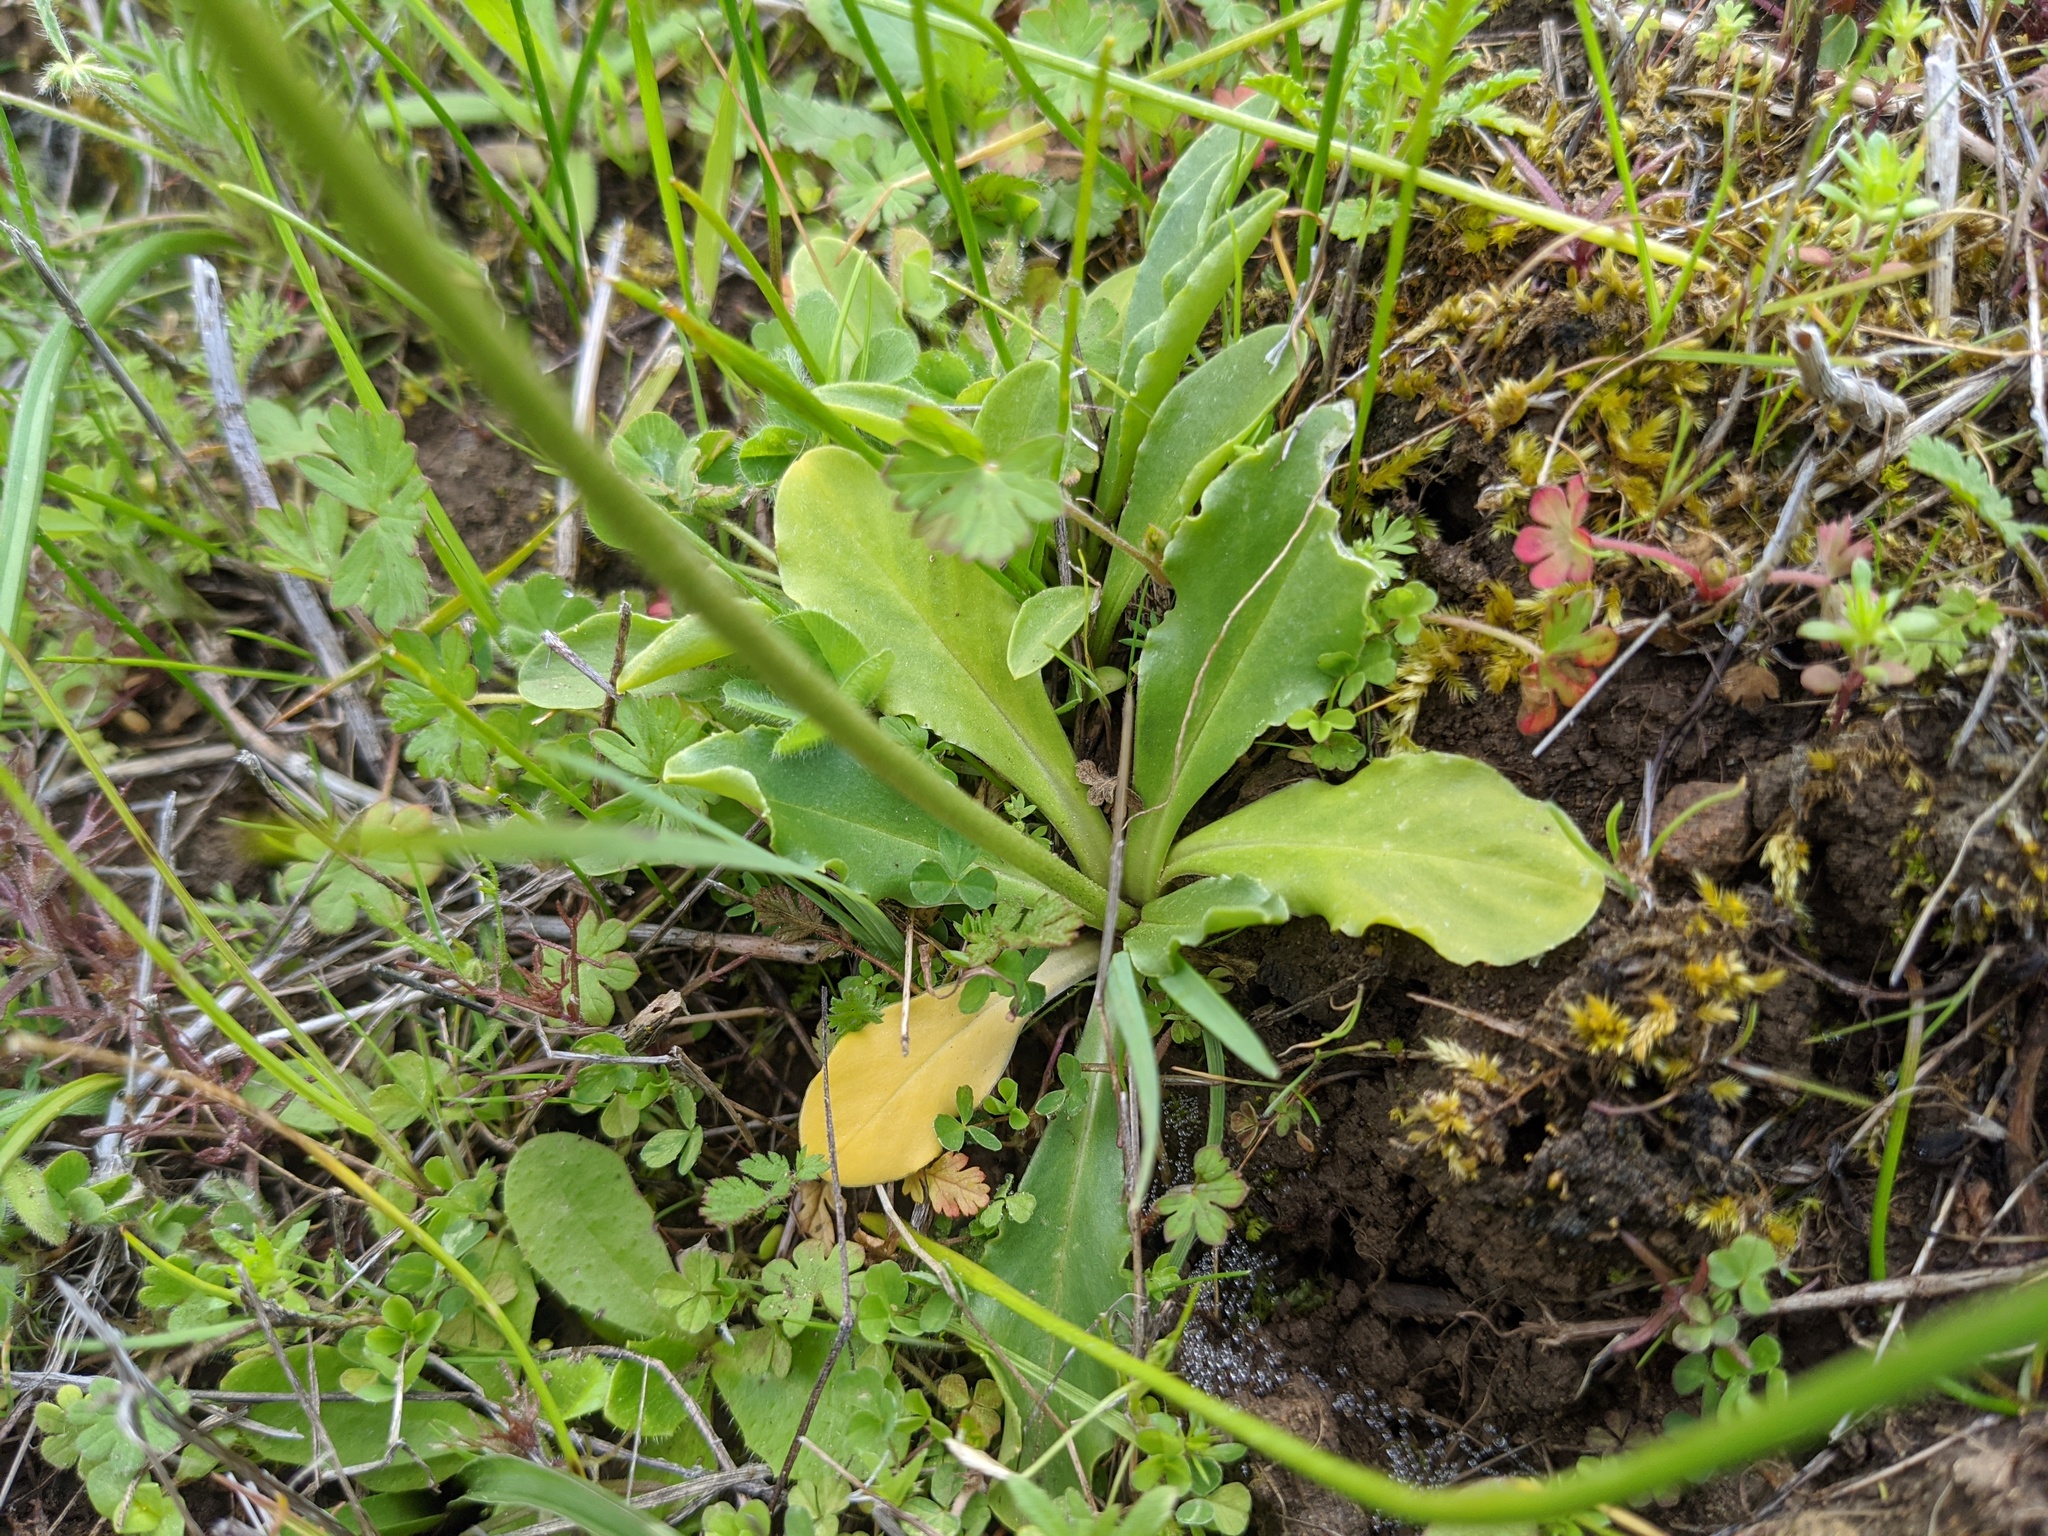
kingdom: Plantae
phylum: Tracheophyta
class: Magnoliopsida
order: Ericales
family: Primulaceae
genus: Dodecatheon
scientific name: Dodecatheon clevelandii
